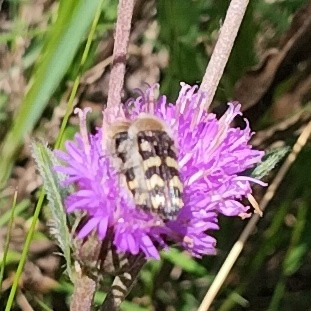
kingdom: Animalia
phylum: Arthropoda
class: Insecta
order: Coleoptera
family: Buprestidae
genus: Lasionota
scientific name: Lasionota quadrifasciatus
